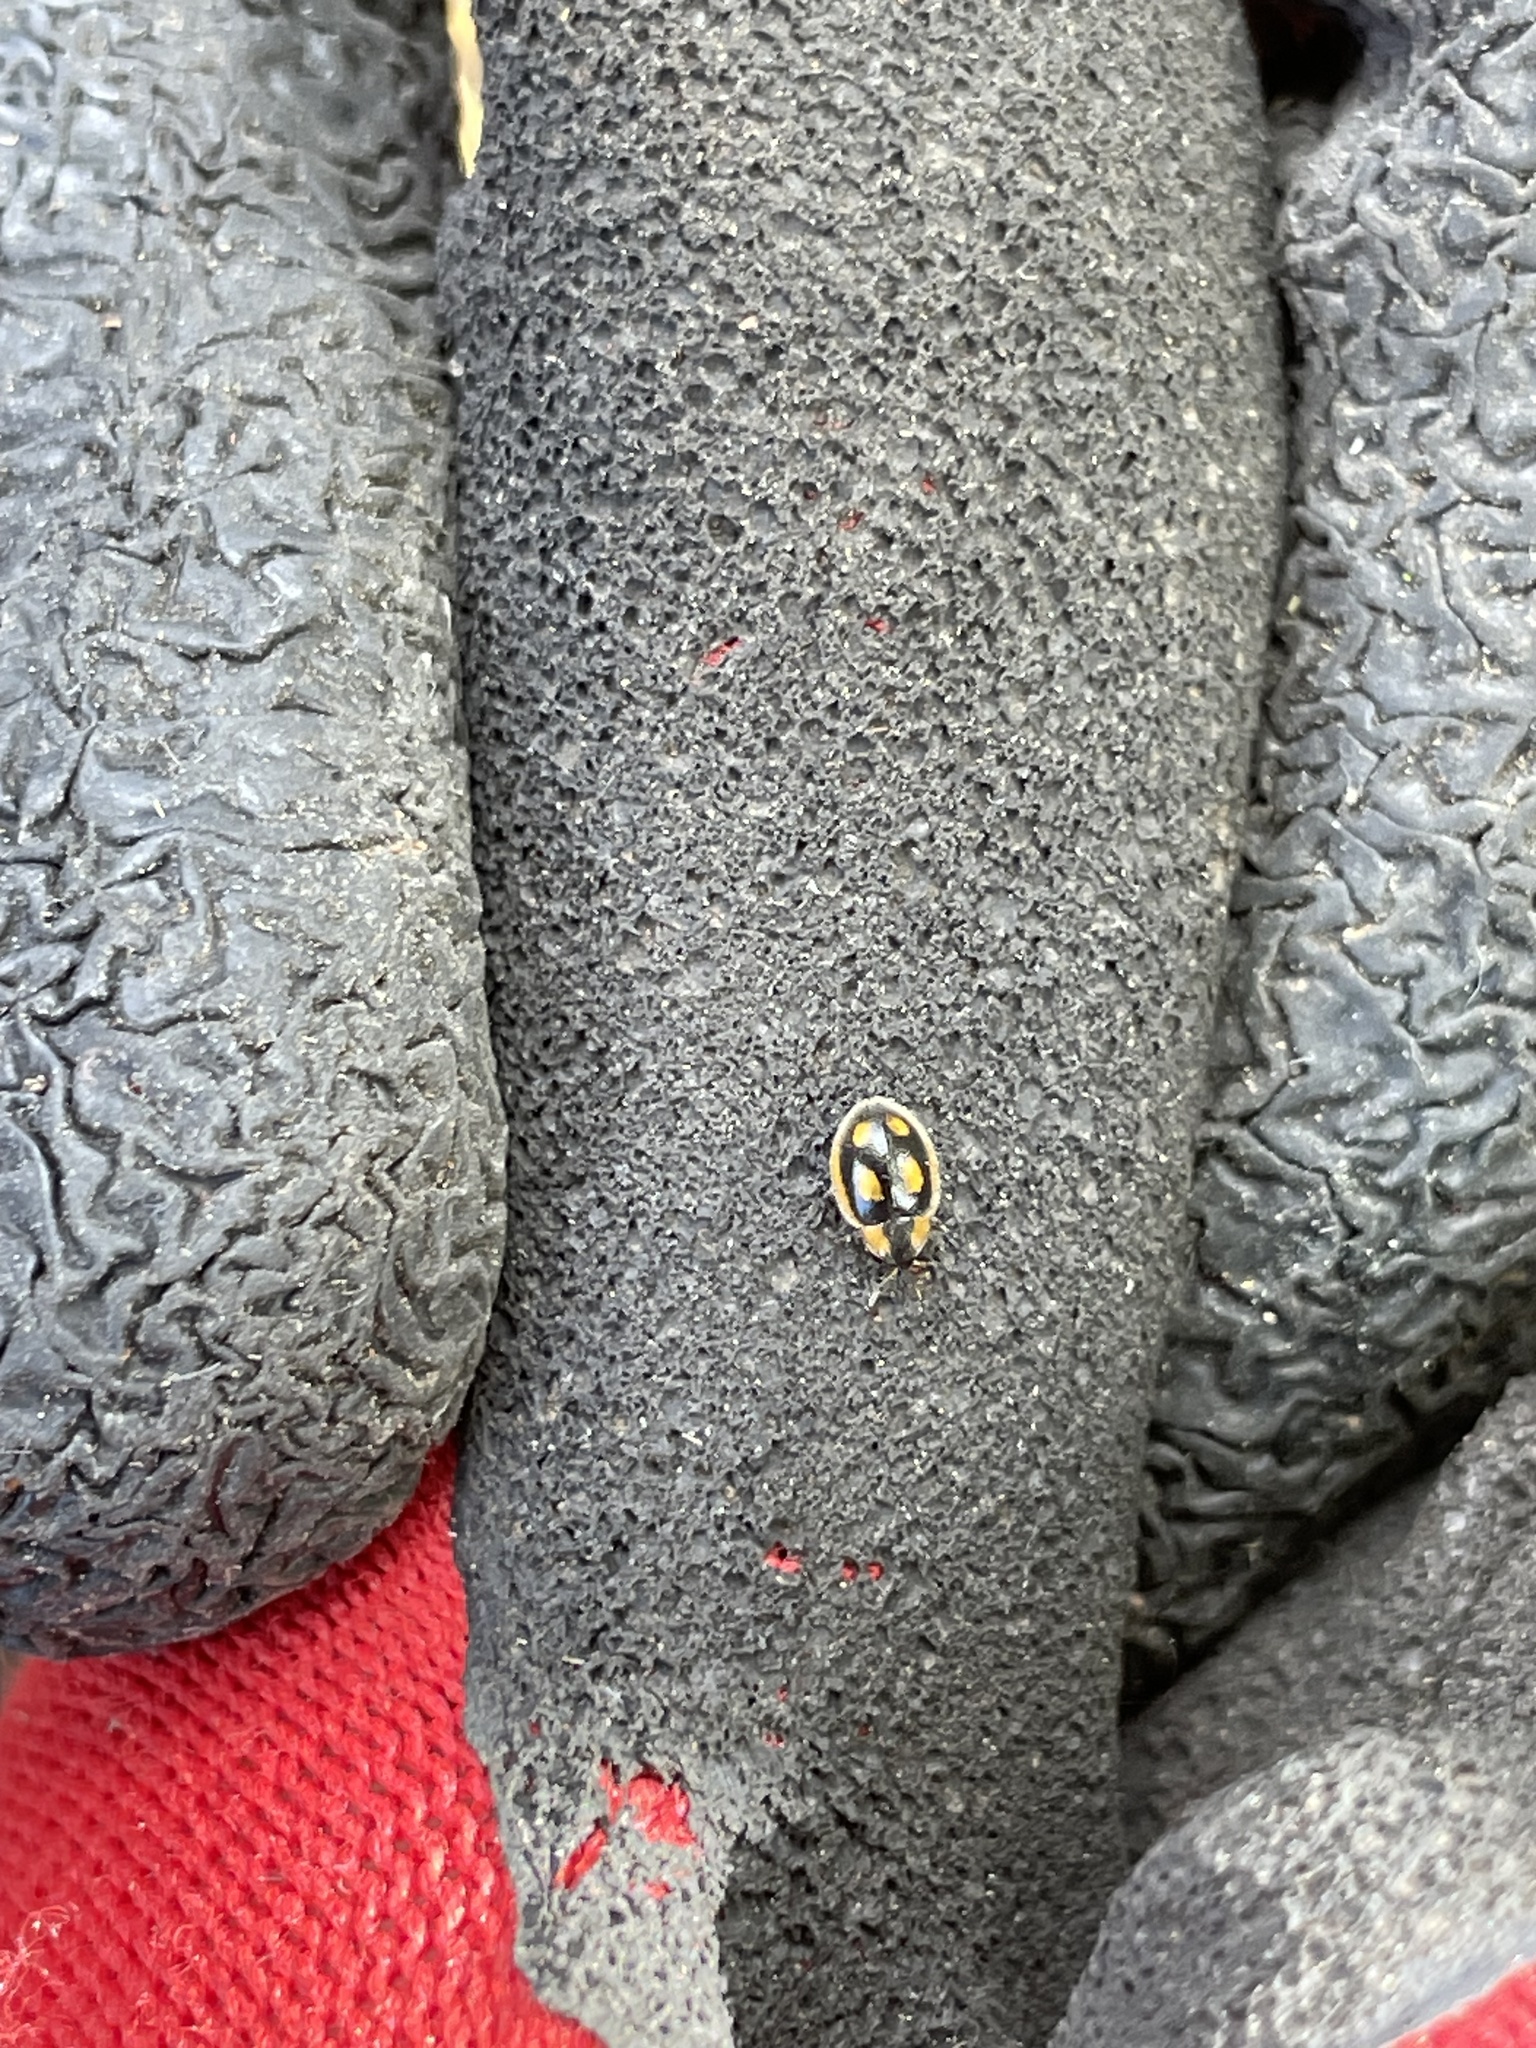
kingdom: Animalia
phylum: Arthropoda
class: Insecta
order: Coleoptera
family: Coccinellidae
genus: Hoangus
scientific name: Hoangus
